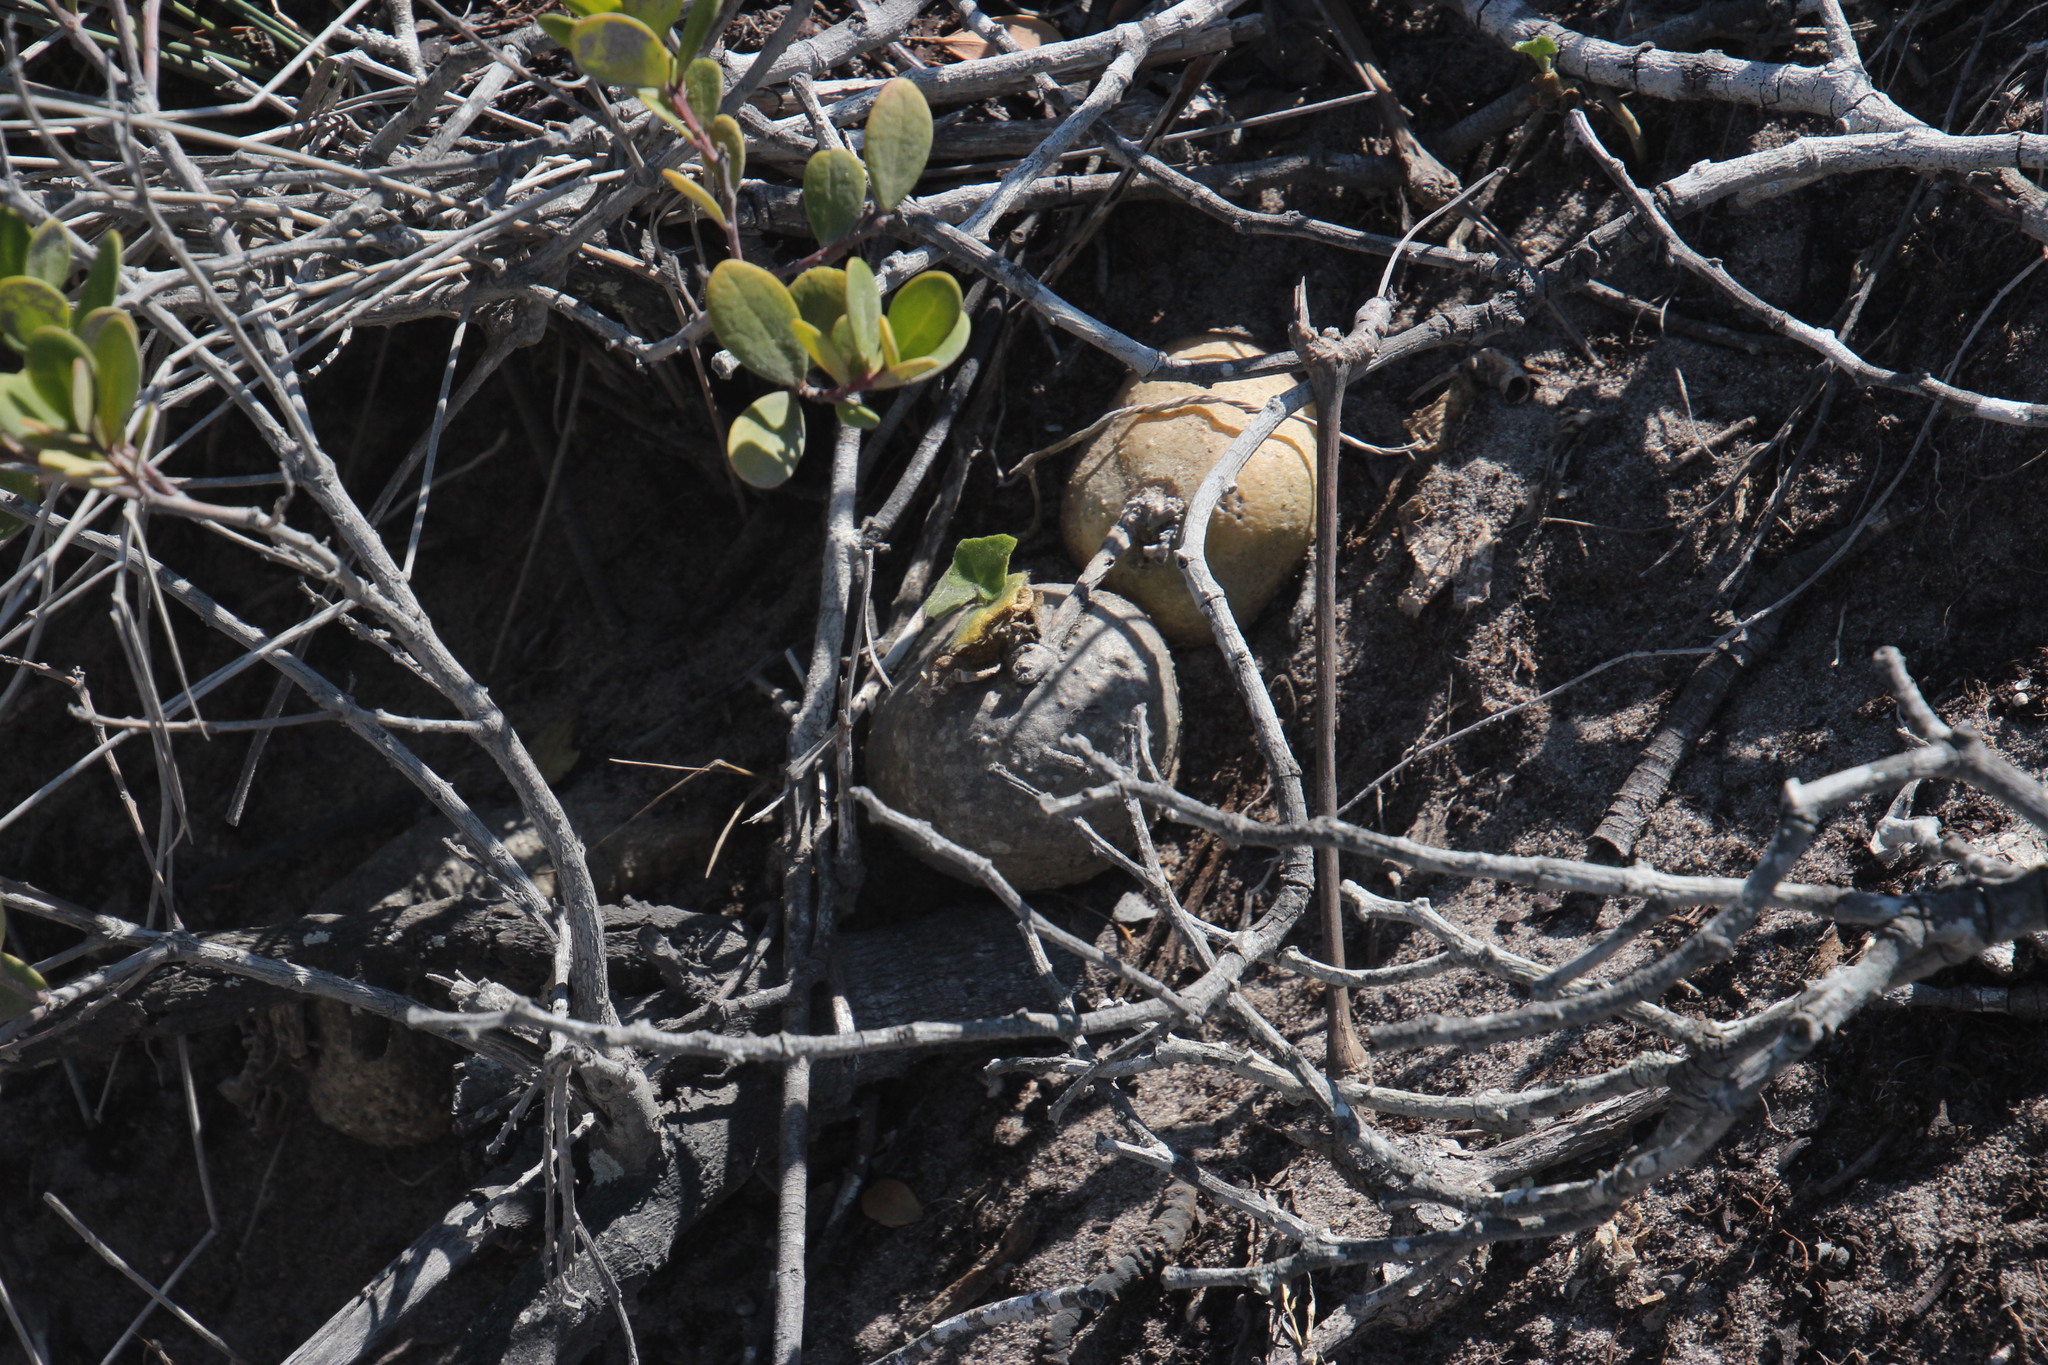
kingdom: Plantae
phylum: Tracheophyta
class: Magnoliopsida
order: Cucurbitales
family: Cucurbitaceae
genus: Kedrostis
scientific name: Kedrostis nana
